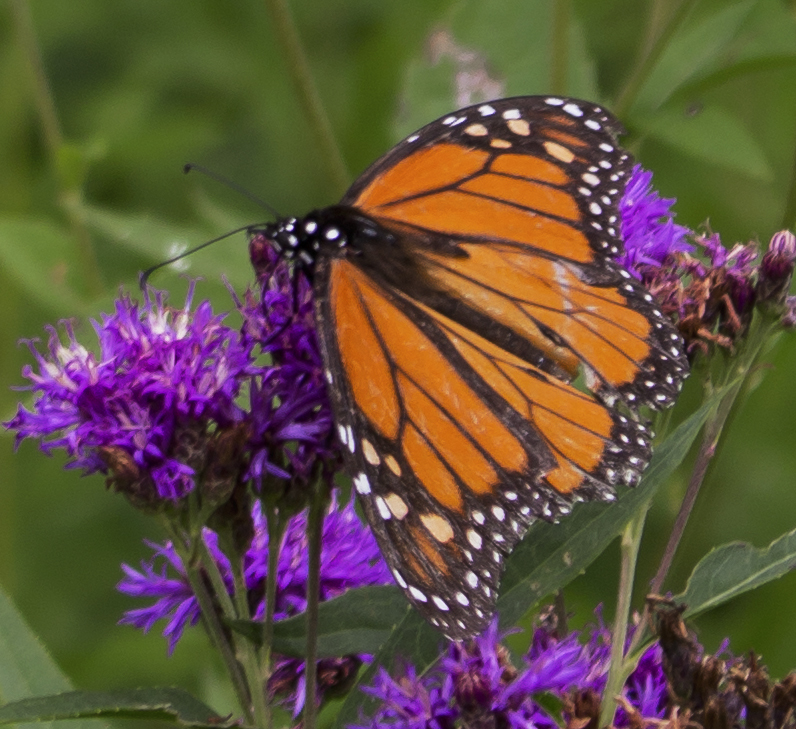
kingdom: Animalia
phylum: Arthropoda
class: Insecta
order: Lepidoptera
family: Nymphalidae
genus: Danaus
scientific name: Danaus plexippus
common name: Monarch
